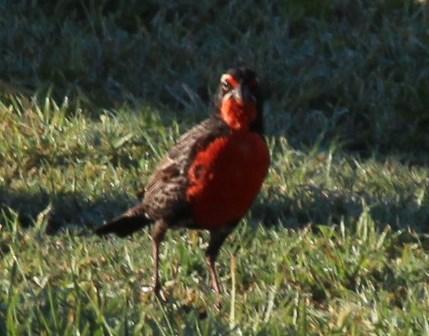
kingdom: Animalia
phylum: Chordata
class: Aves
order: Passeriformes
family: Icteridae
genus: Sturnella
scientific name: Sturnella loyca
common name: Long-tailed meadowlark
